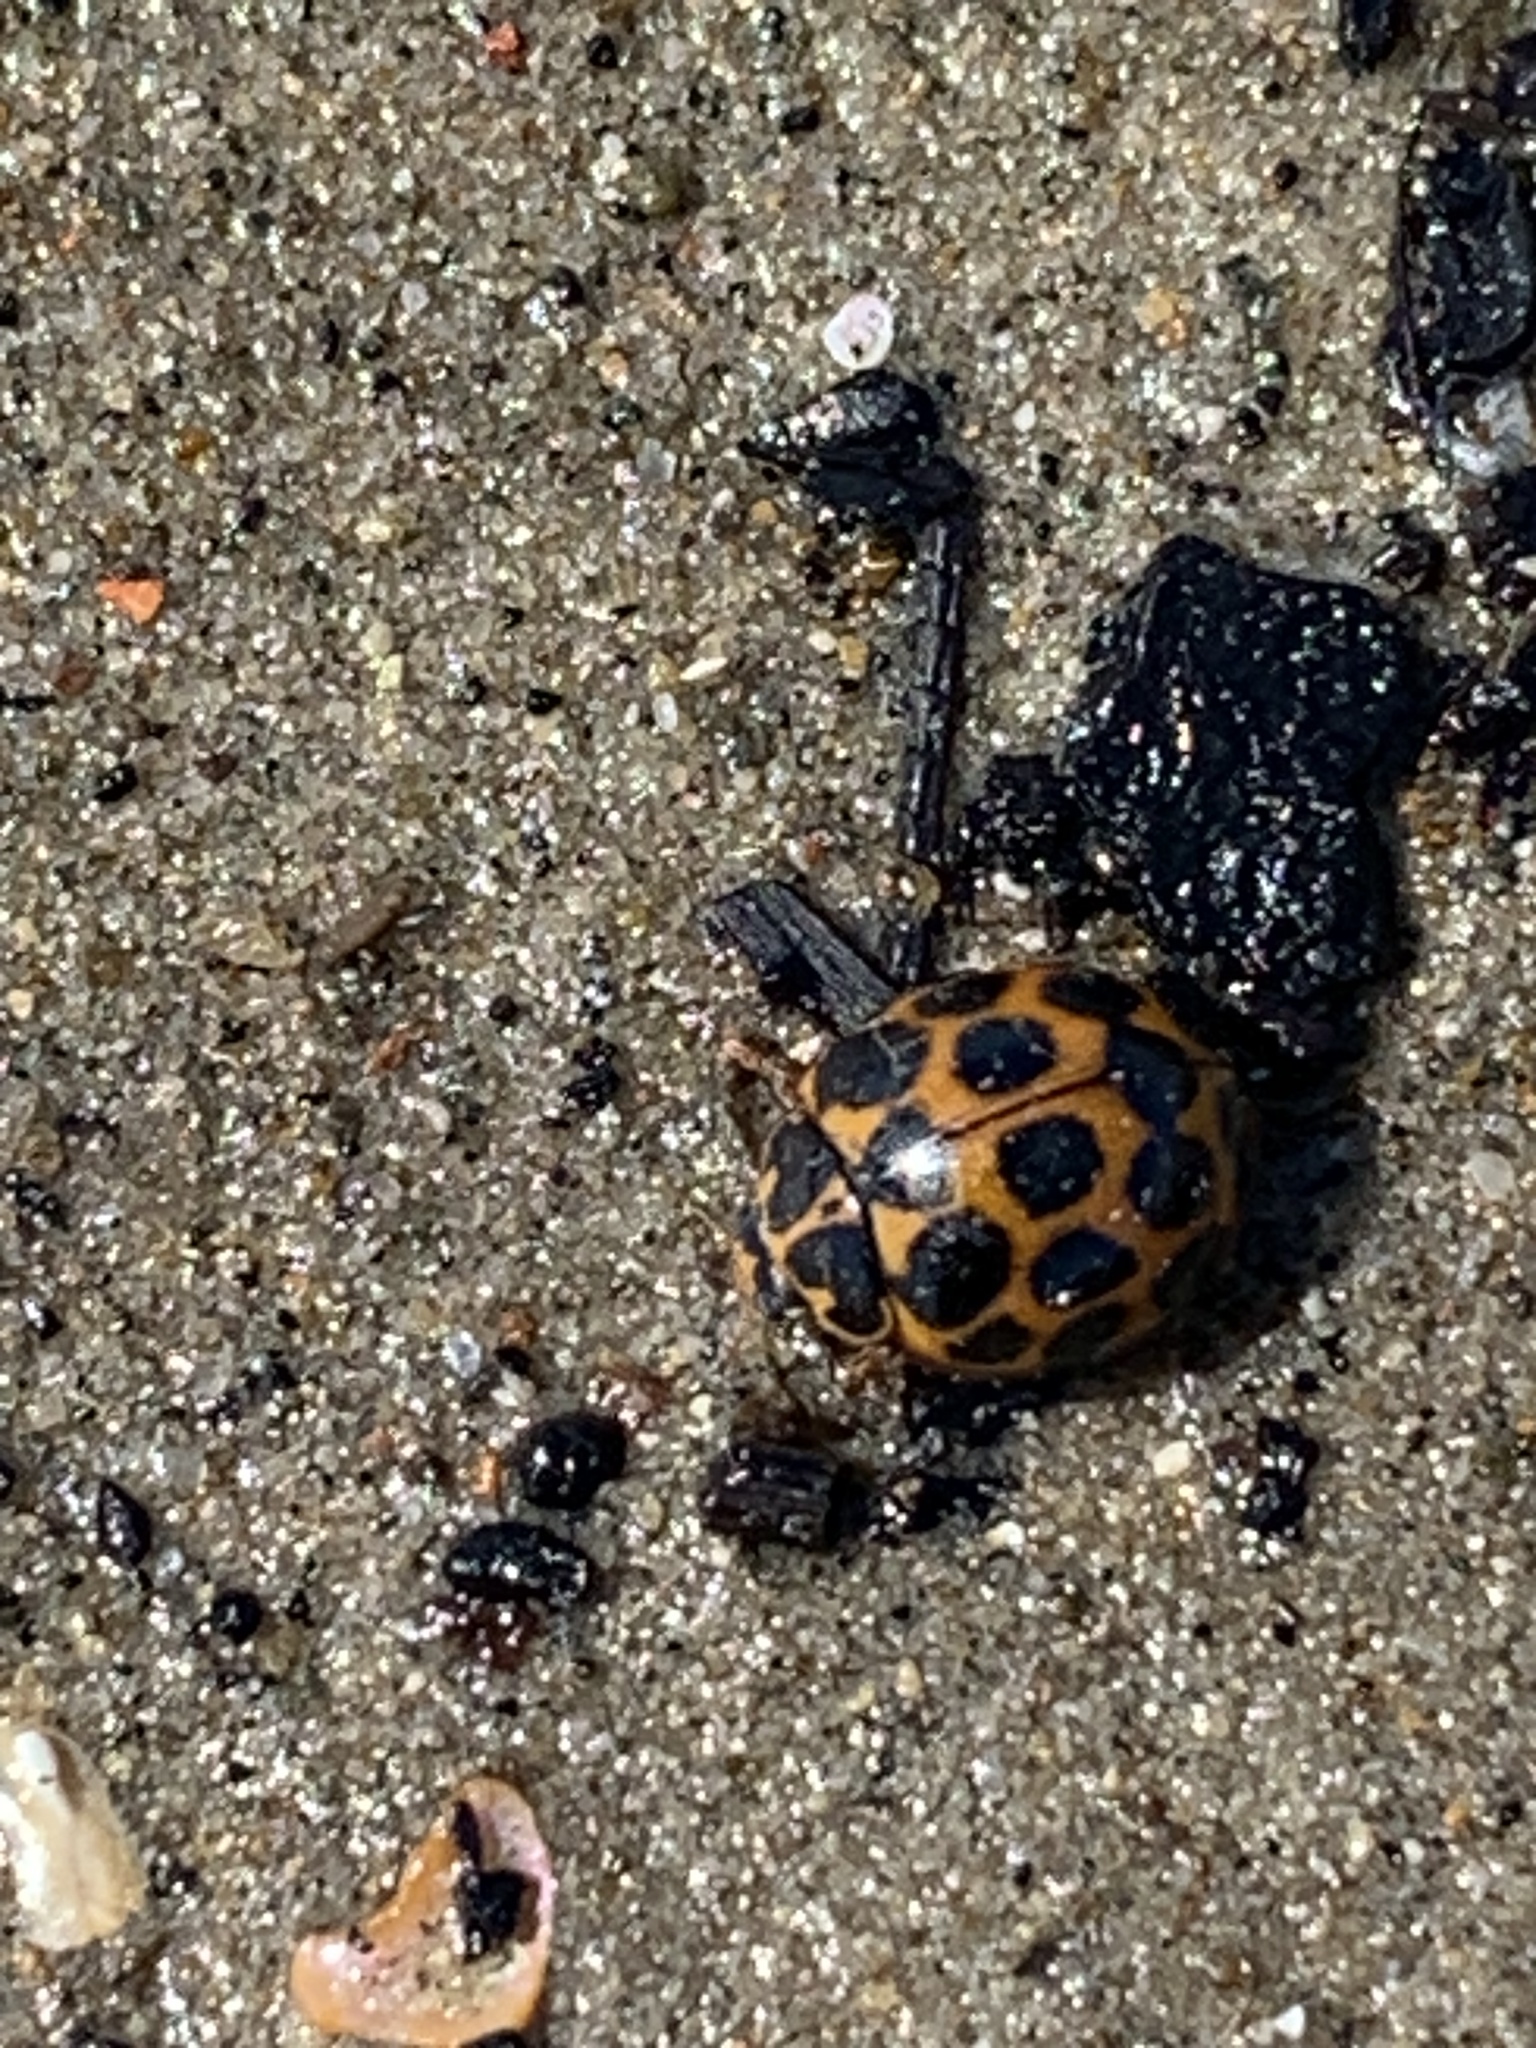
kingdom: Animalia
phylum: Arthropoda
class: Insecta
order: Coleoptera
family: Coccinellidae
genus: Harmonia
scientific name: Harmonia conformis
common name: Common spotted ladybird beetle
